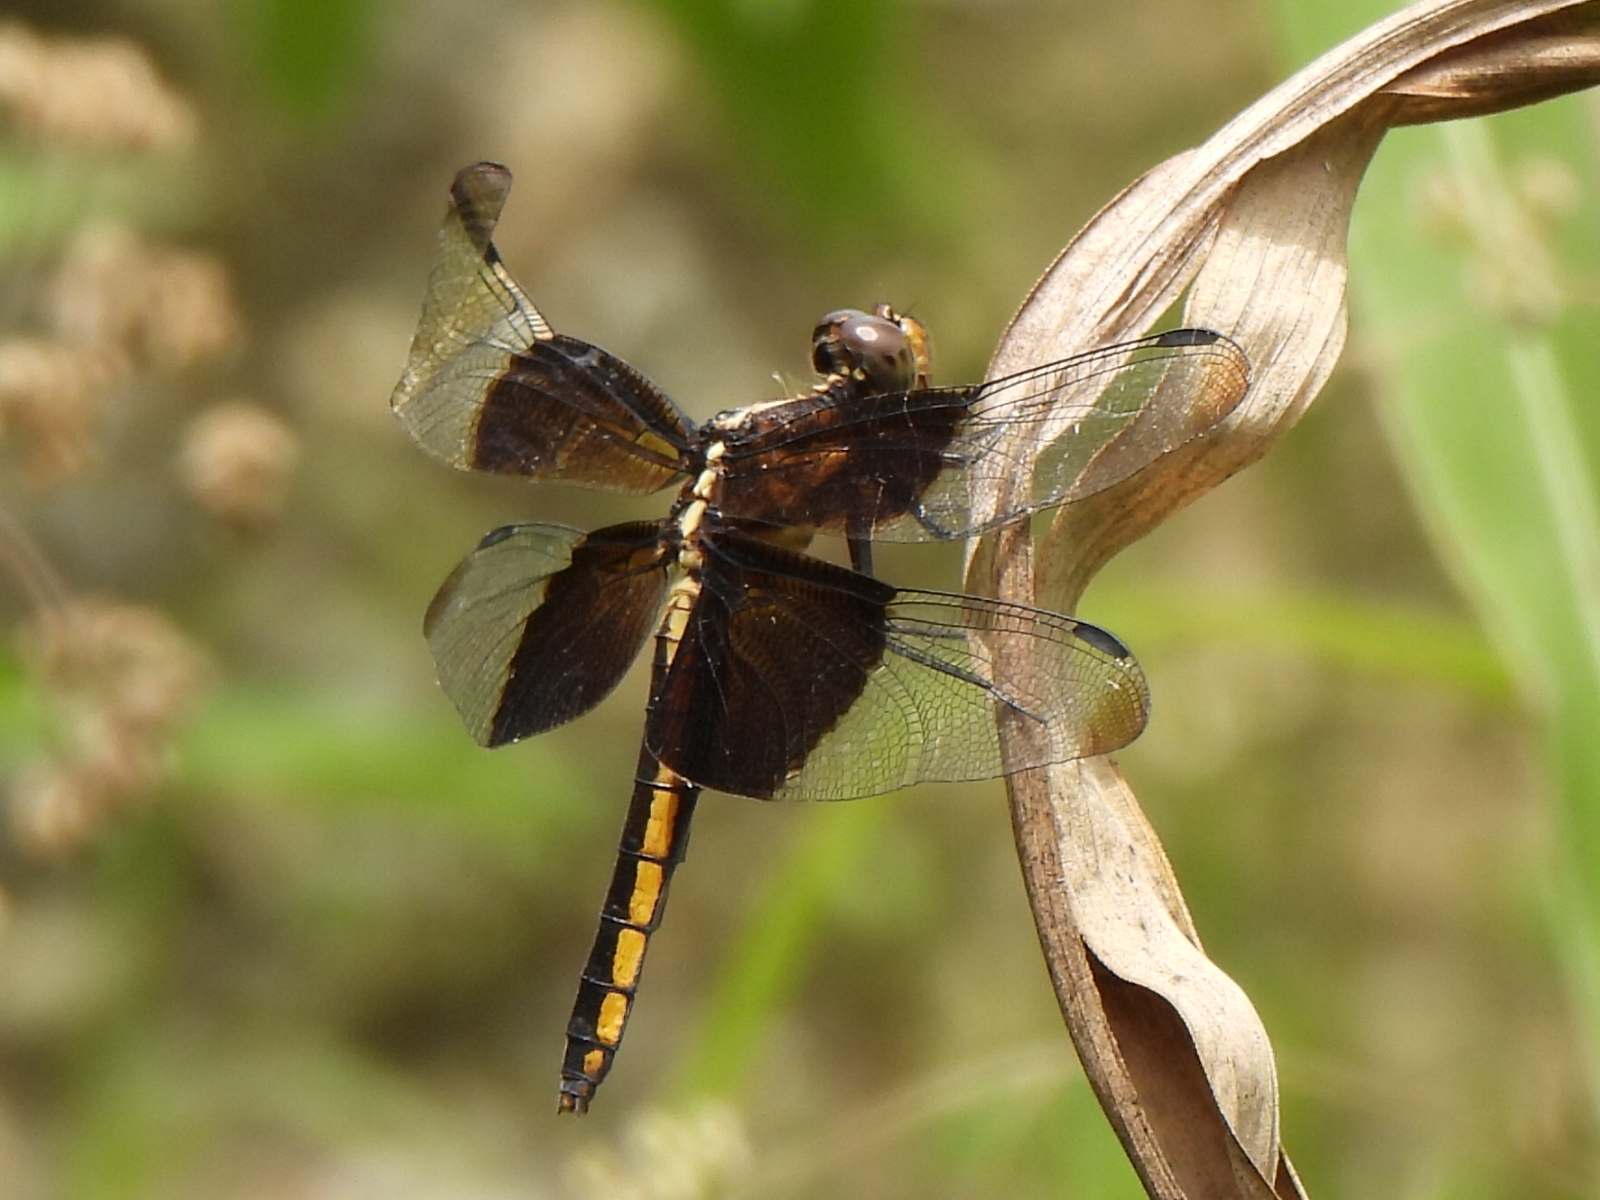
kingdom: Animalia
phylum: Arthropoda
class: Insecta
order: Odonata
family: Libellulidae
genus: Libellula
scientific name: Libellula luctuosa
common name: Widow skimmer
